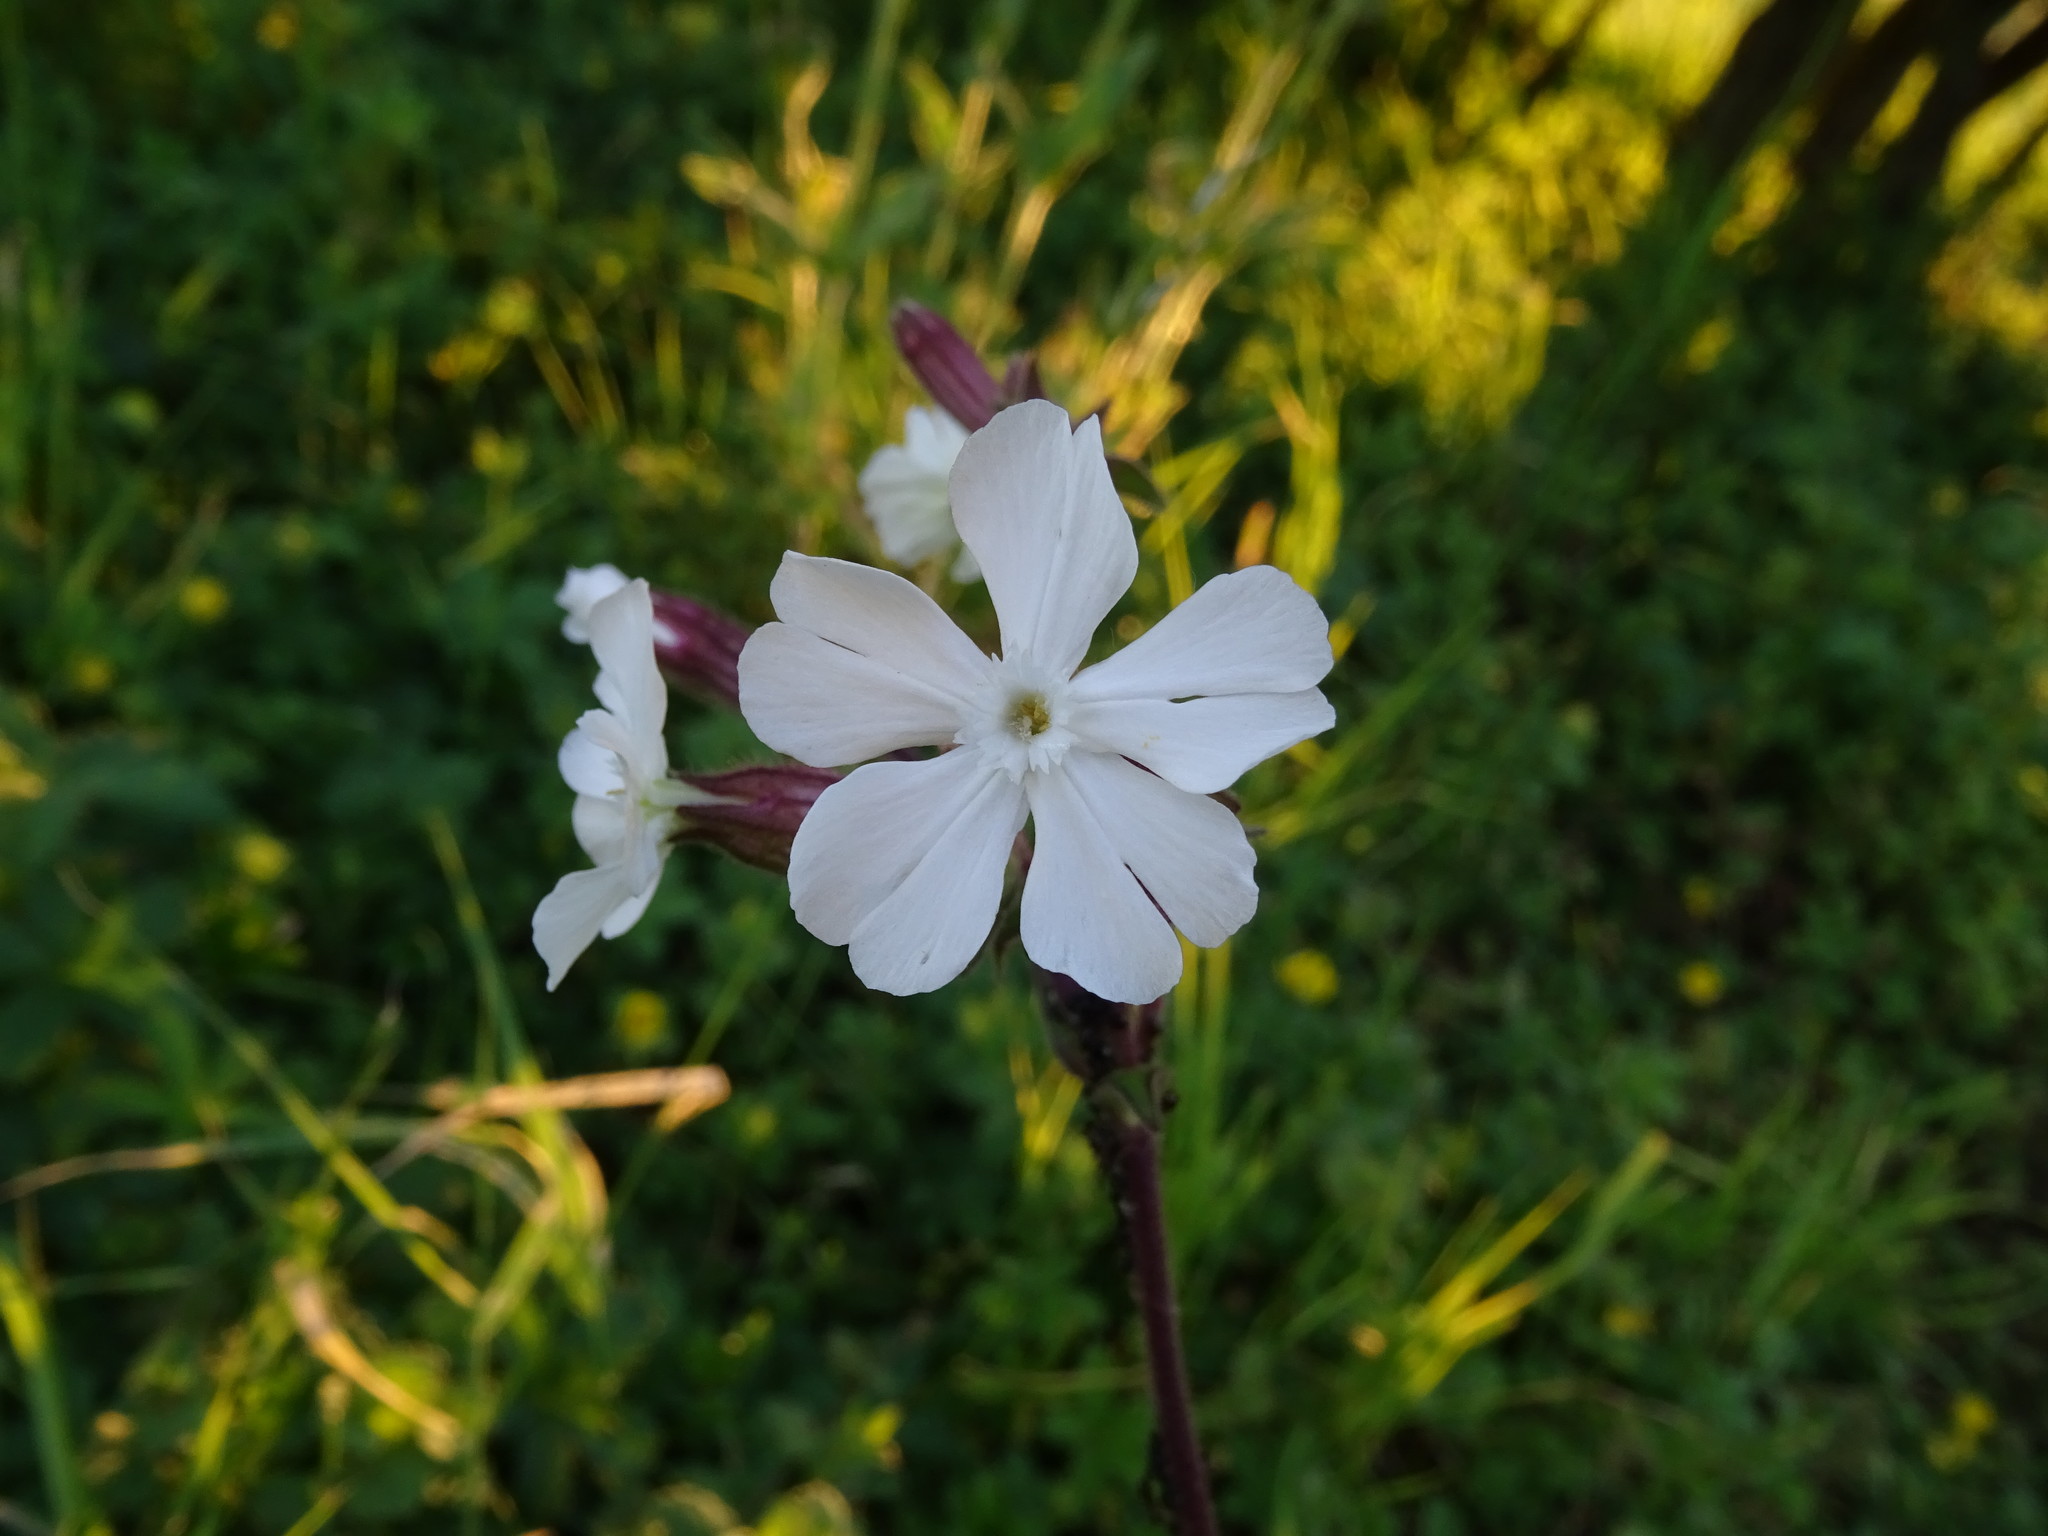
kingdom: Plantae
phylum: Tracheophyta
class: Magnoliopsida
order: Caryophyllales
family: Caryophyllaceae
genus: Silene
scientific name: Silene latifolia
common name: White campion
